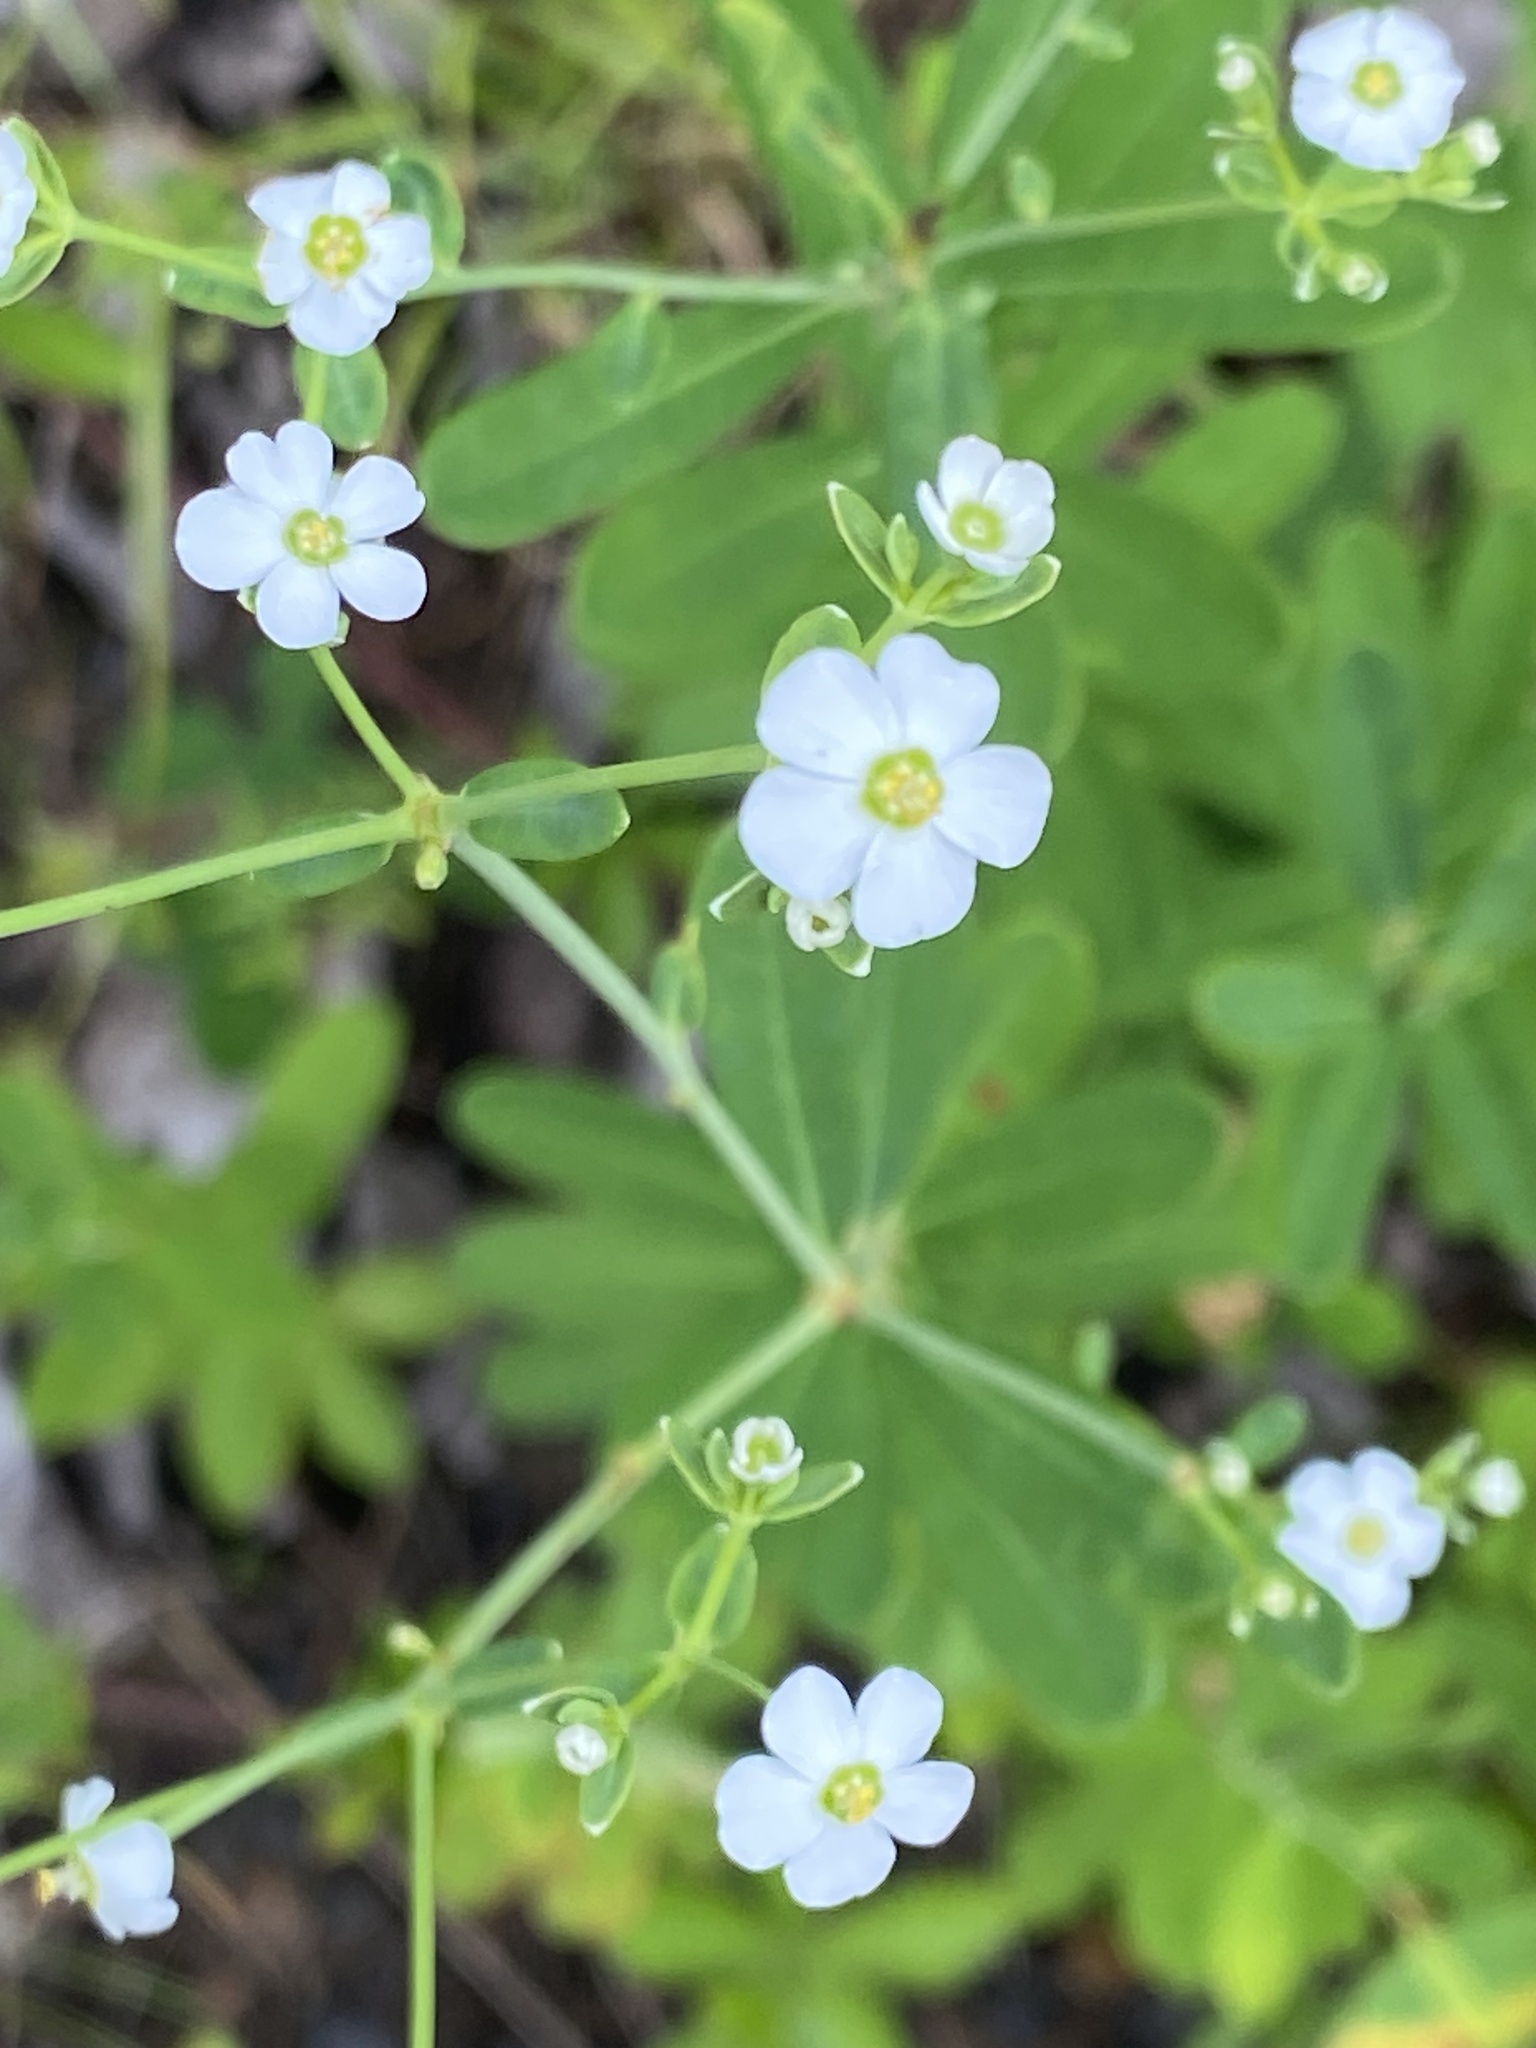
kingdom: Plantae
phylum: Tracheophyta
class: Magnoliopsida
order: Malpighiales
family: Euphorbiaceae
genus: Euphorbia
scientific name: Euphorbia corollata
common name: Flowering spurge
